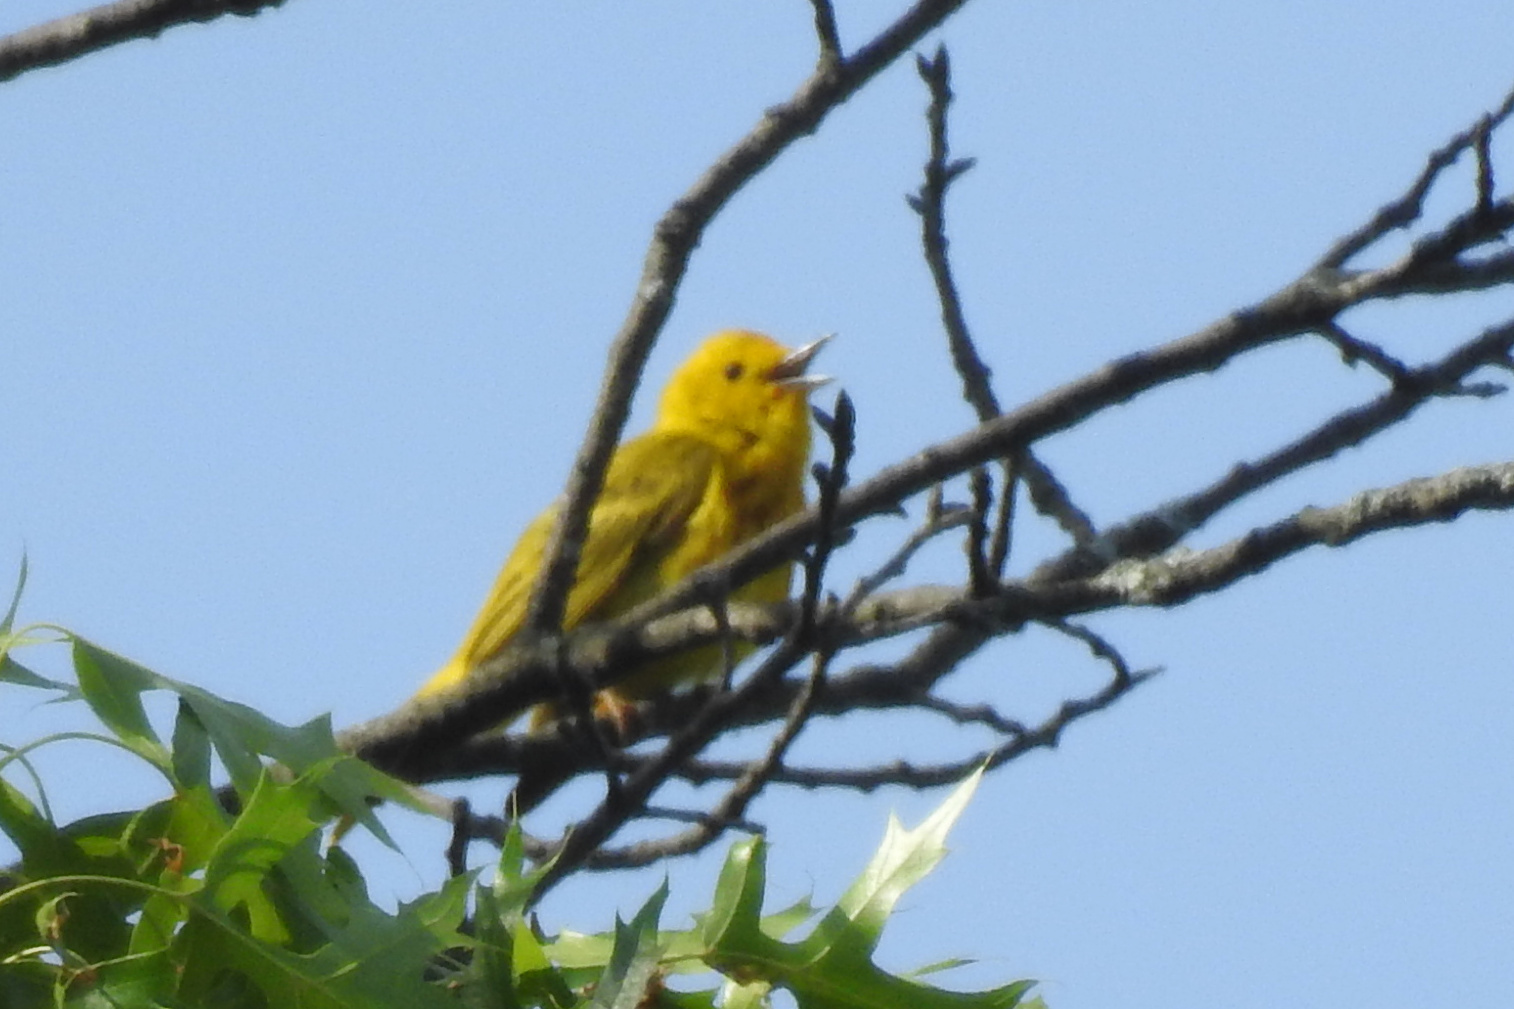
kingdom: Animalia
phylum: Chordata
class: Aves
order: Passeriformes
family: Parulidae
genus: Setophaga
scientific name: Setophaga petechia
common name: Yellow warbler
